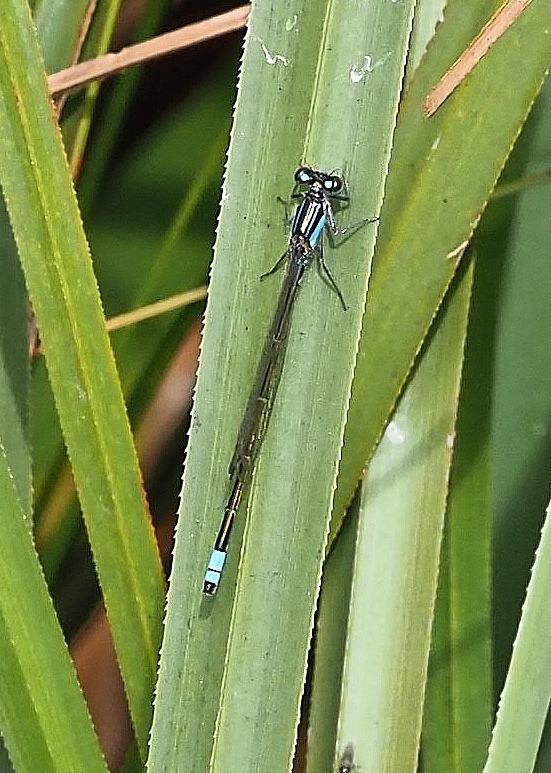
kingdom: Animalia
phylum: Arthropoda
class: Insecta
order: Odonata
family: Coenagrionidae
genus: Ischnura
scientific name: Ischnura heterosticta
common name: Common bluetail
